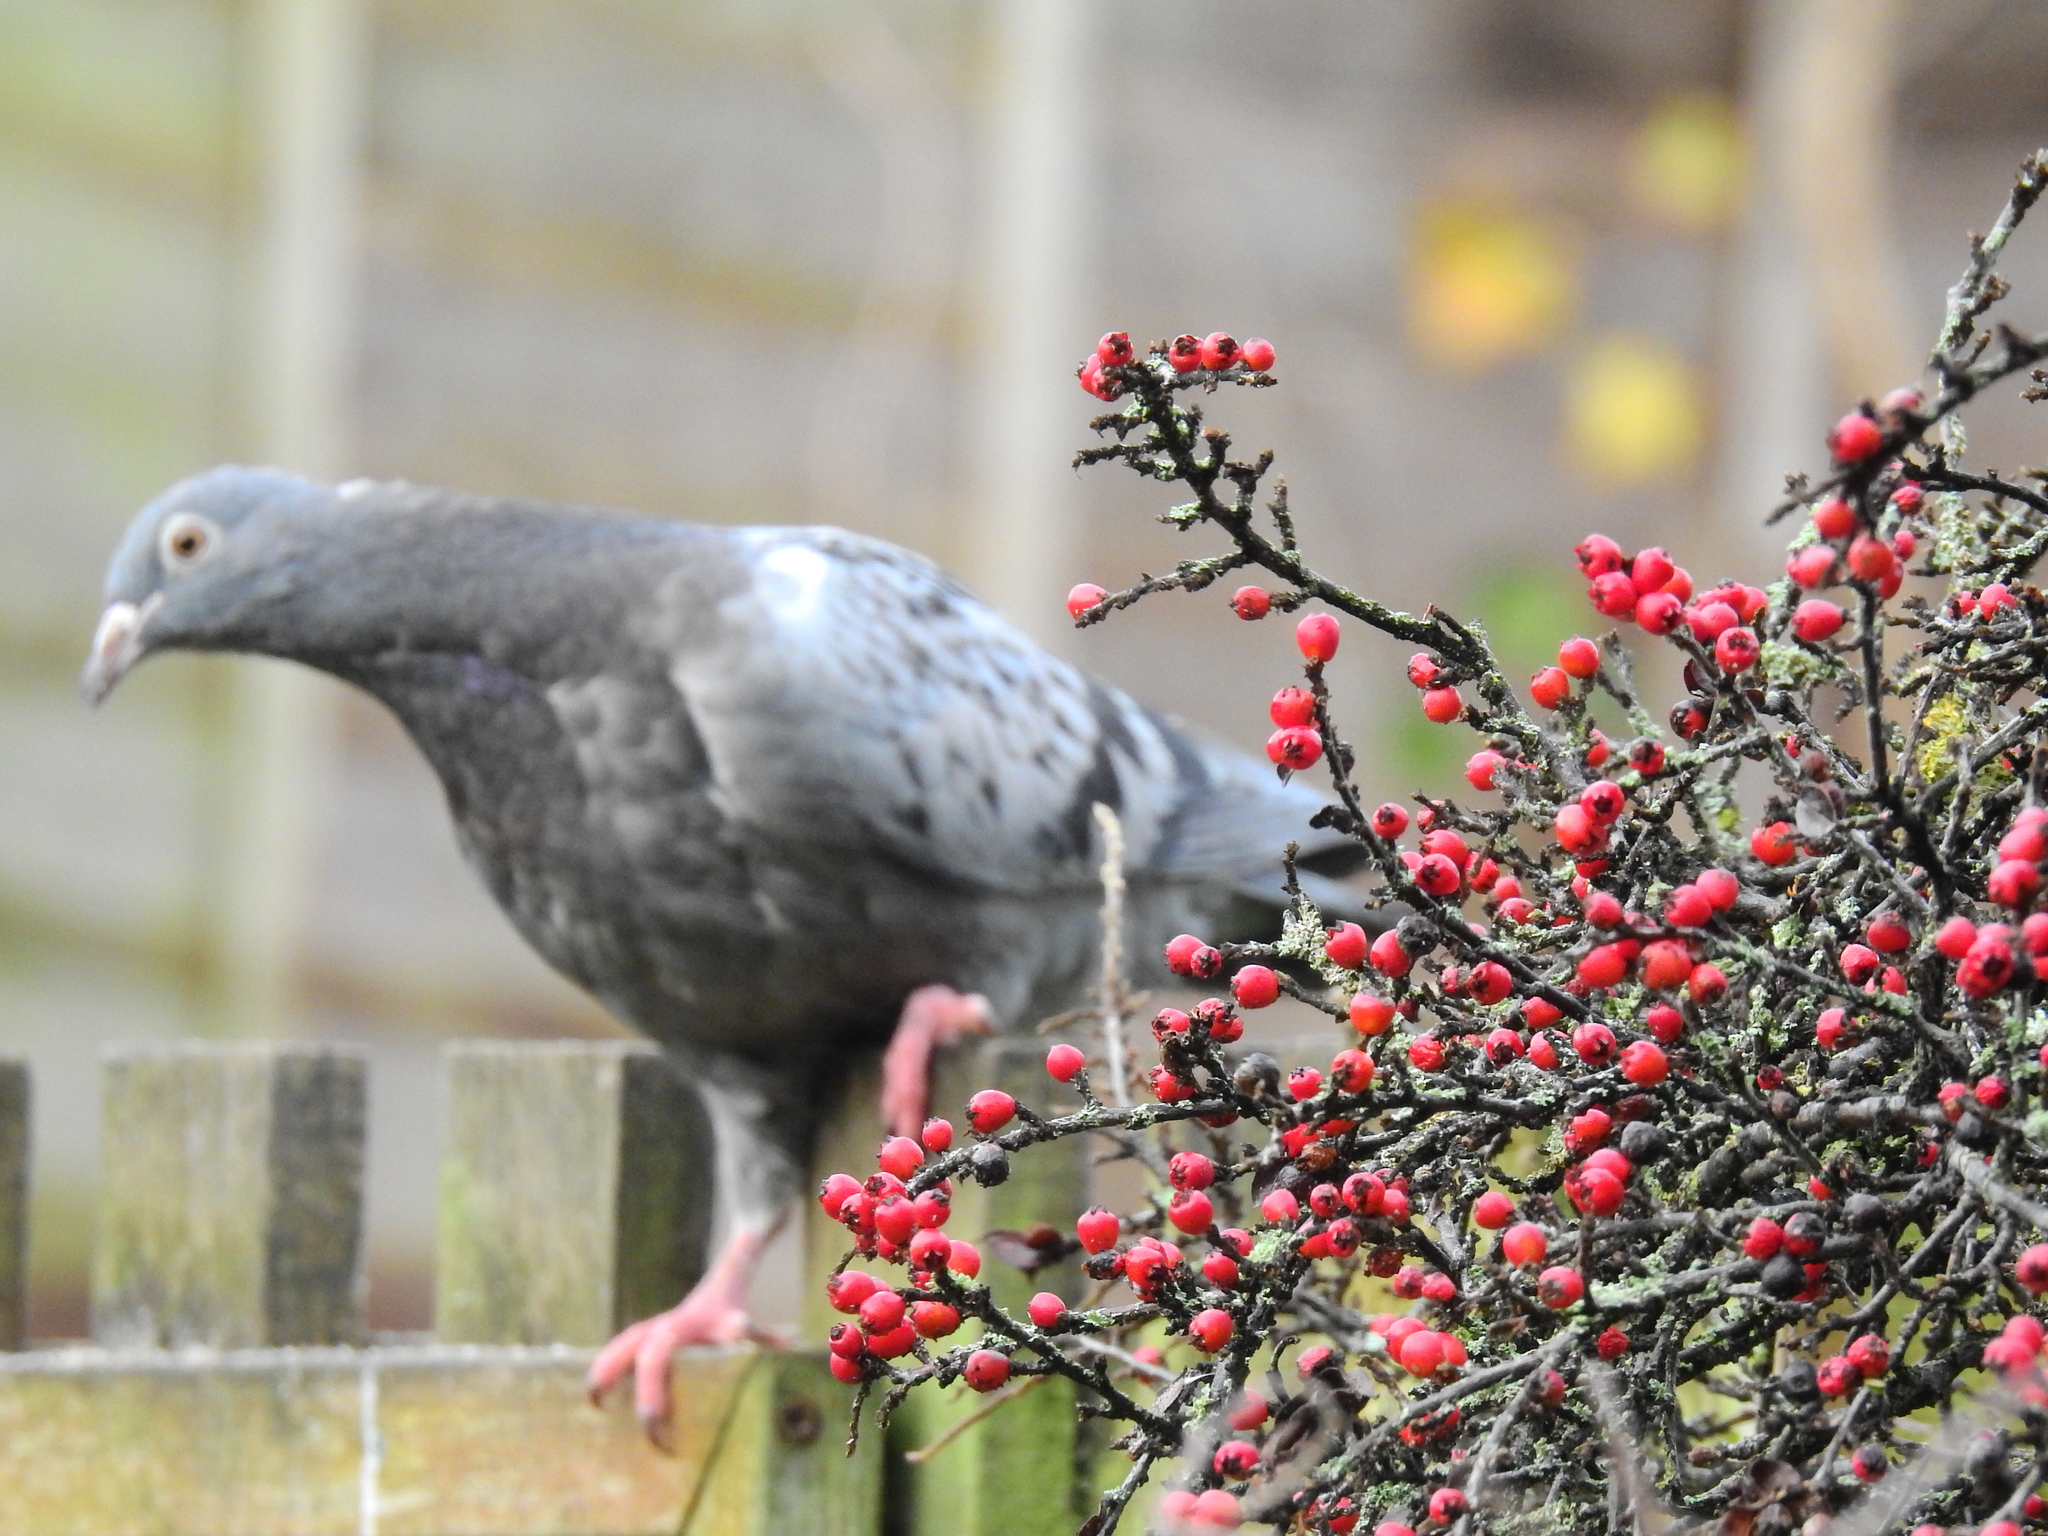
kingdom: Animalia
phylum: Chordata
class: Aves
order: Columbiformes
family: Columbidae
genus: Columba
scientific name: Columba livia
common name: Rock pigeon
